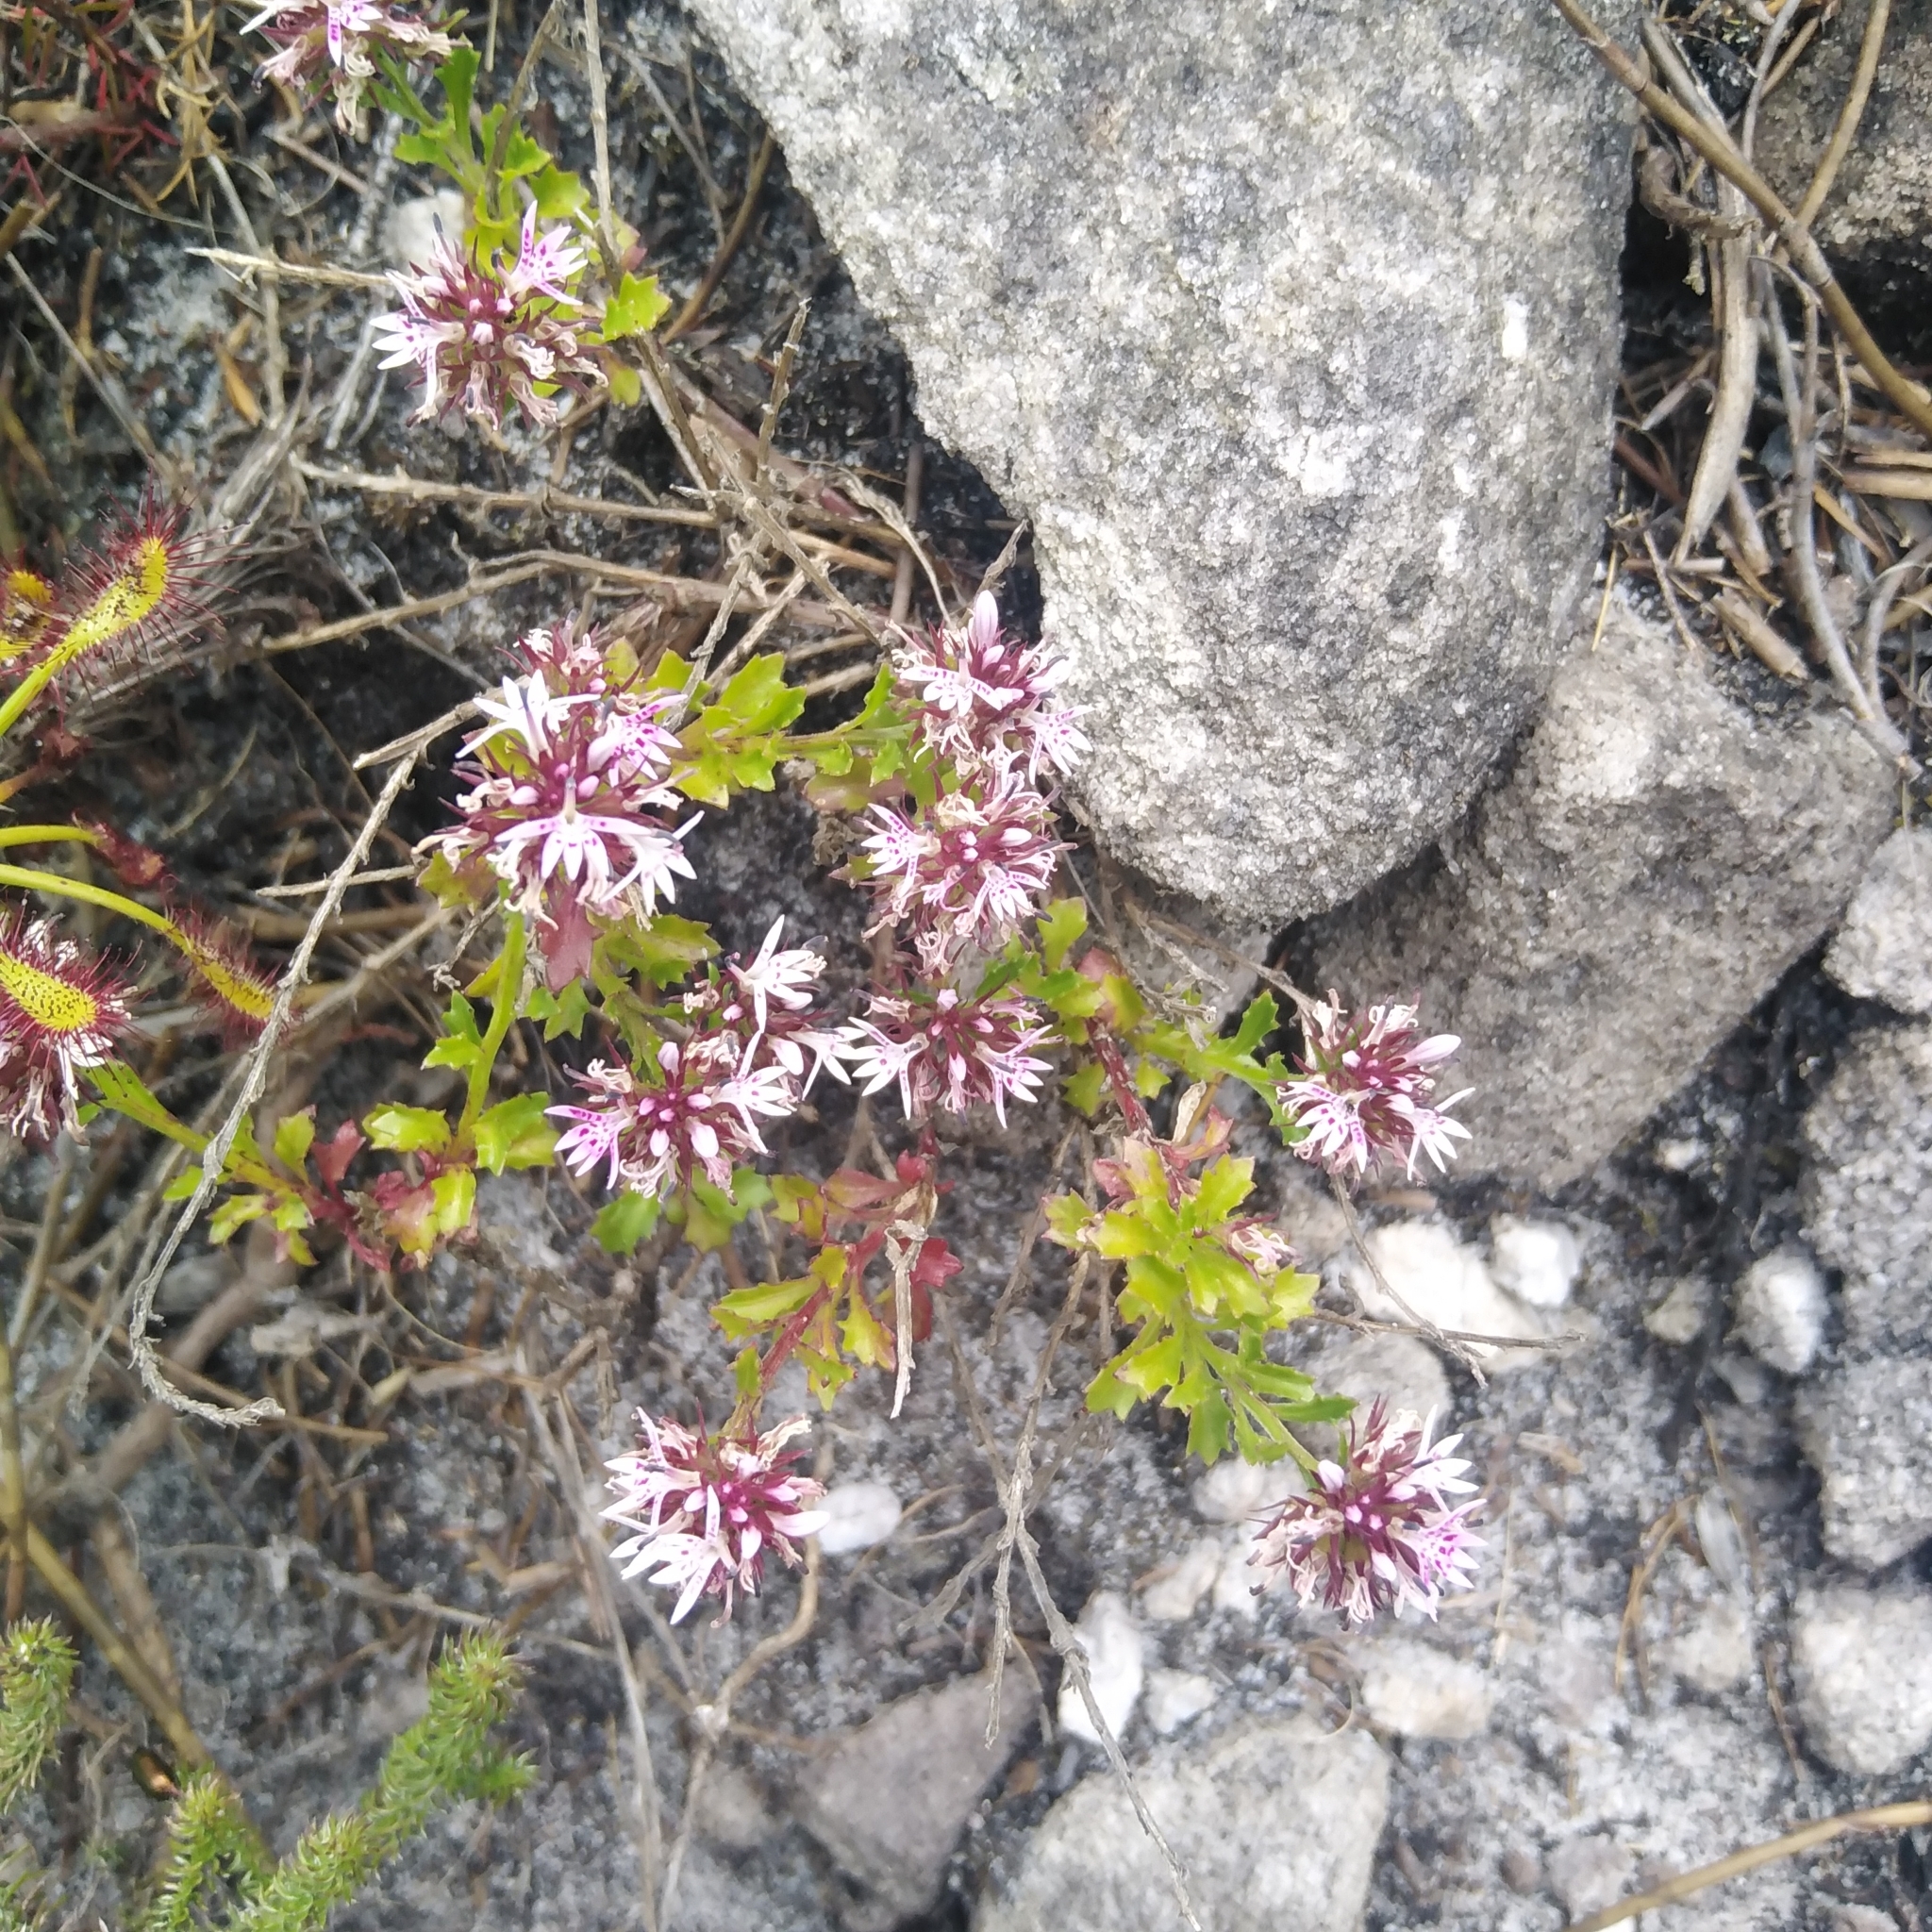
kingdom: Plantae
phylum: Tracheophyta
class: Magnoliopsida
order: Asterales
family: Campanulaceae
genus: Lobelia
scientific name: Lobelia jasionoides
